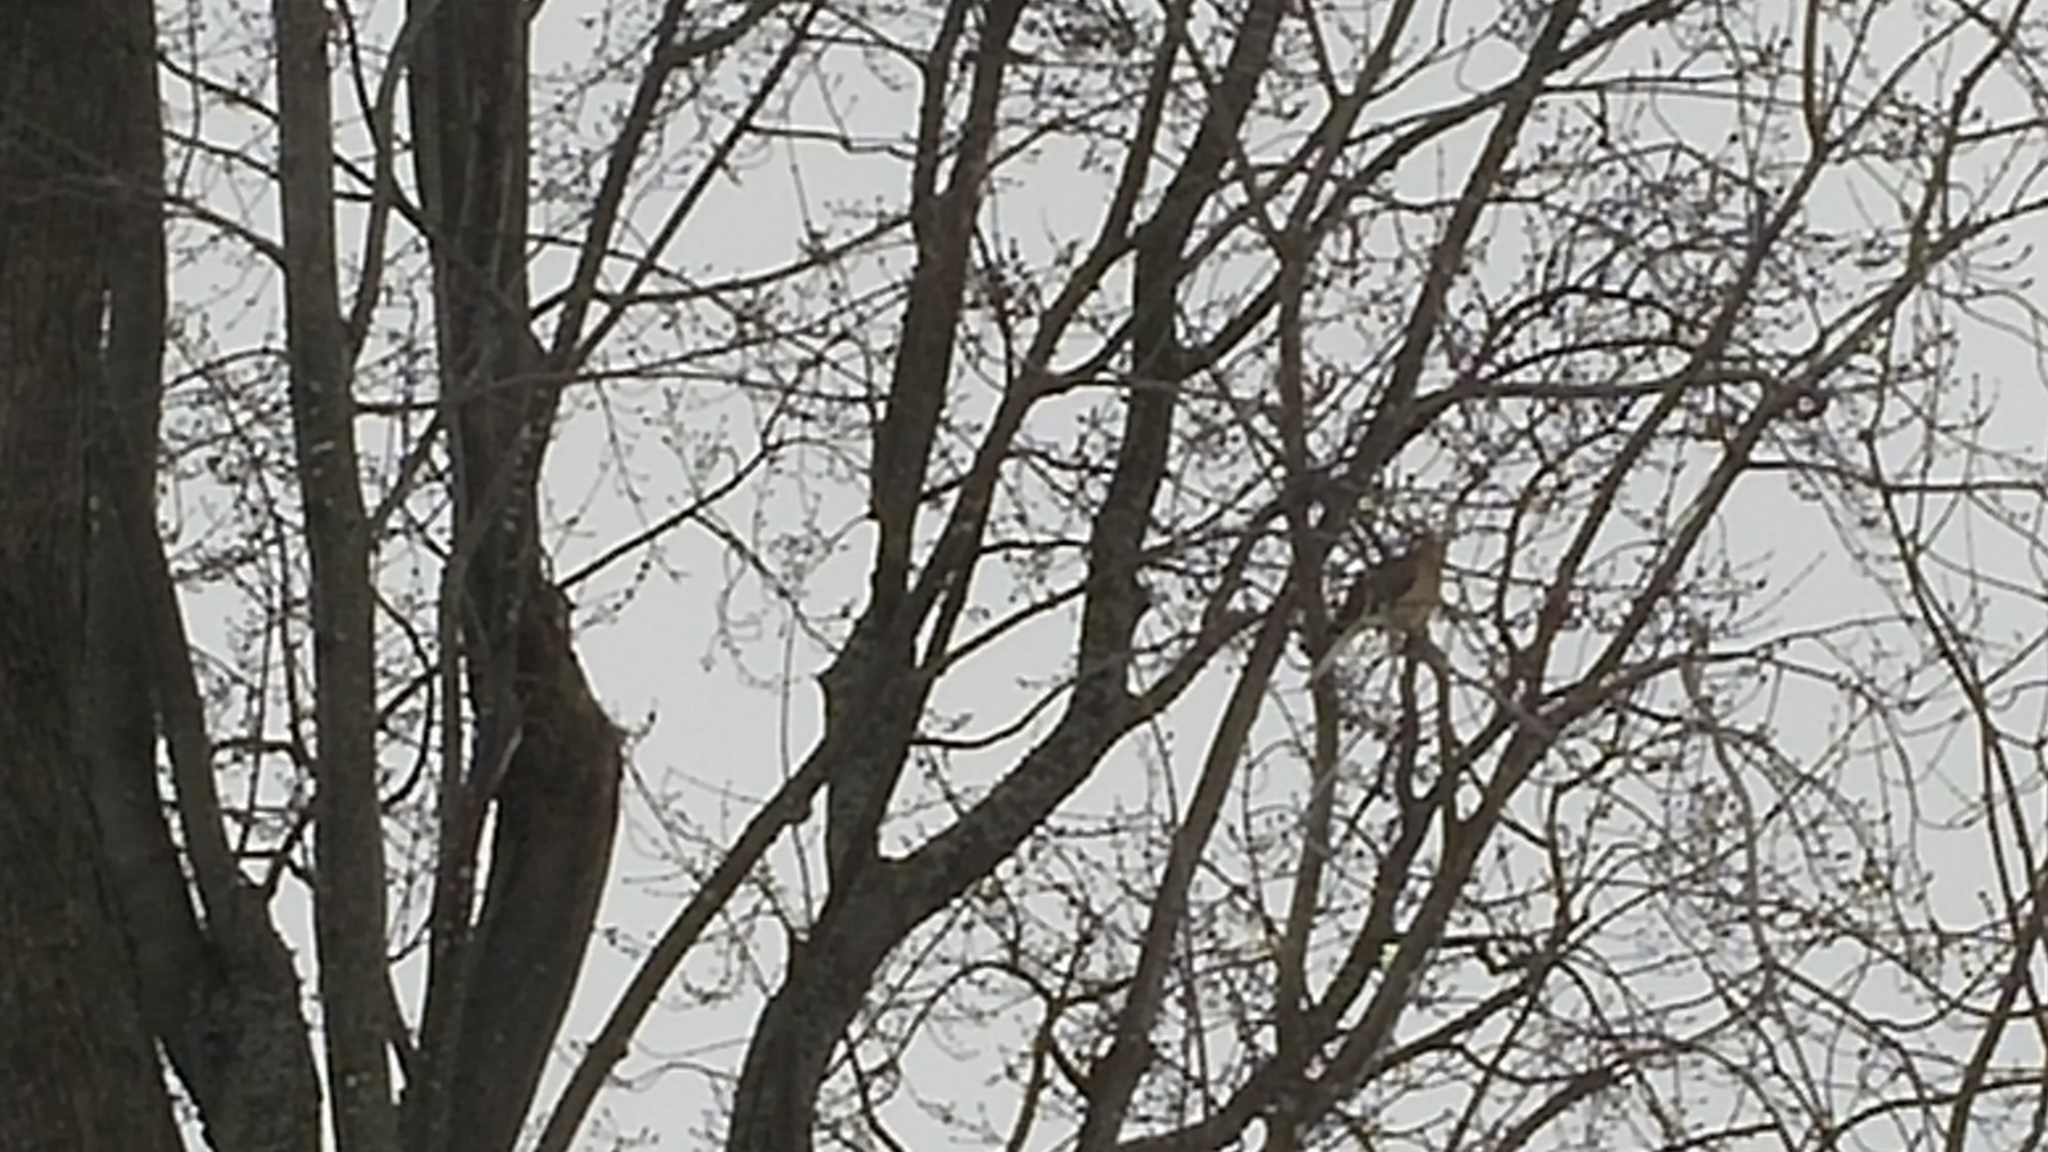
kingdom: Animalia
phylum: Chordata
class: Aves
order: Columbiformes
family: Columbidae
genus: Zenaida
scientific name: Zenaida macroura
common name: Mourning dove
